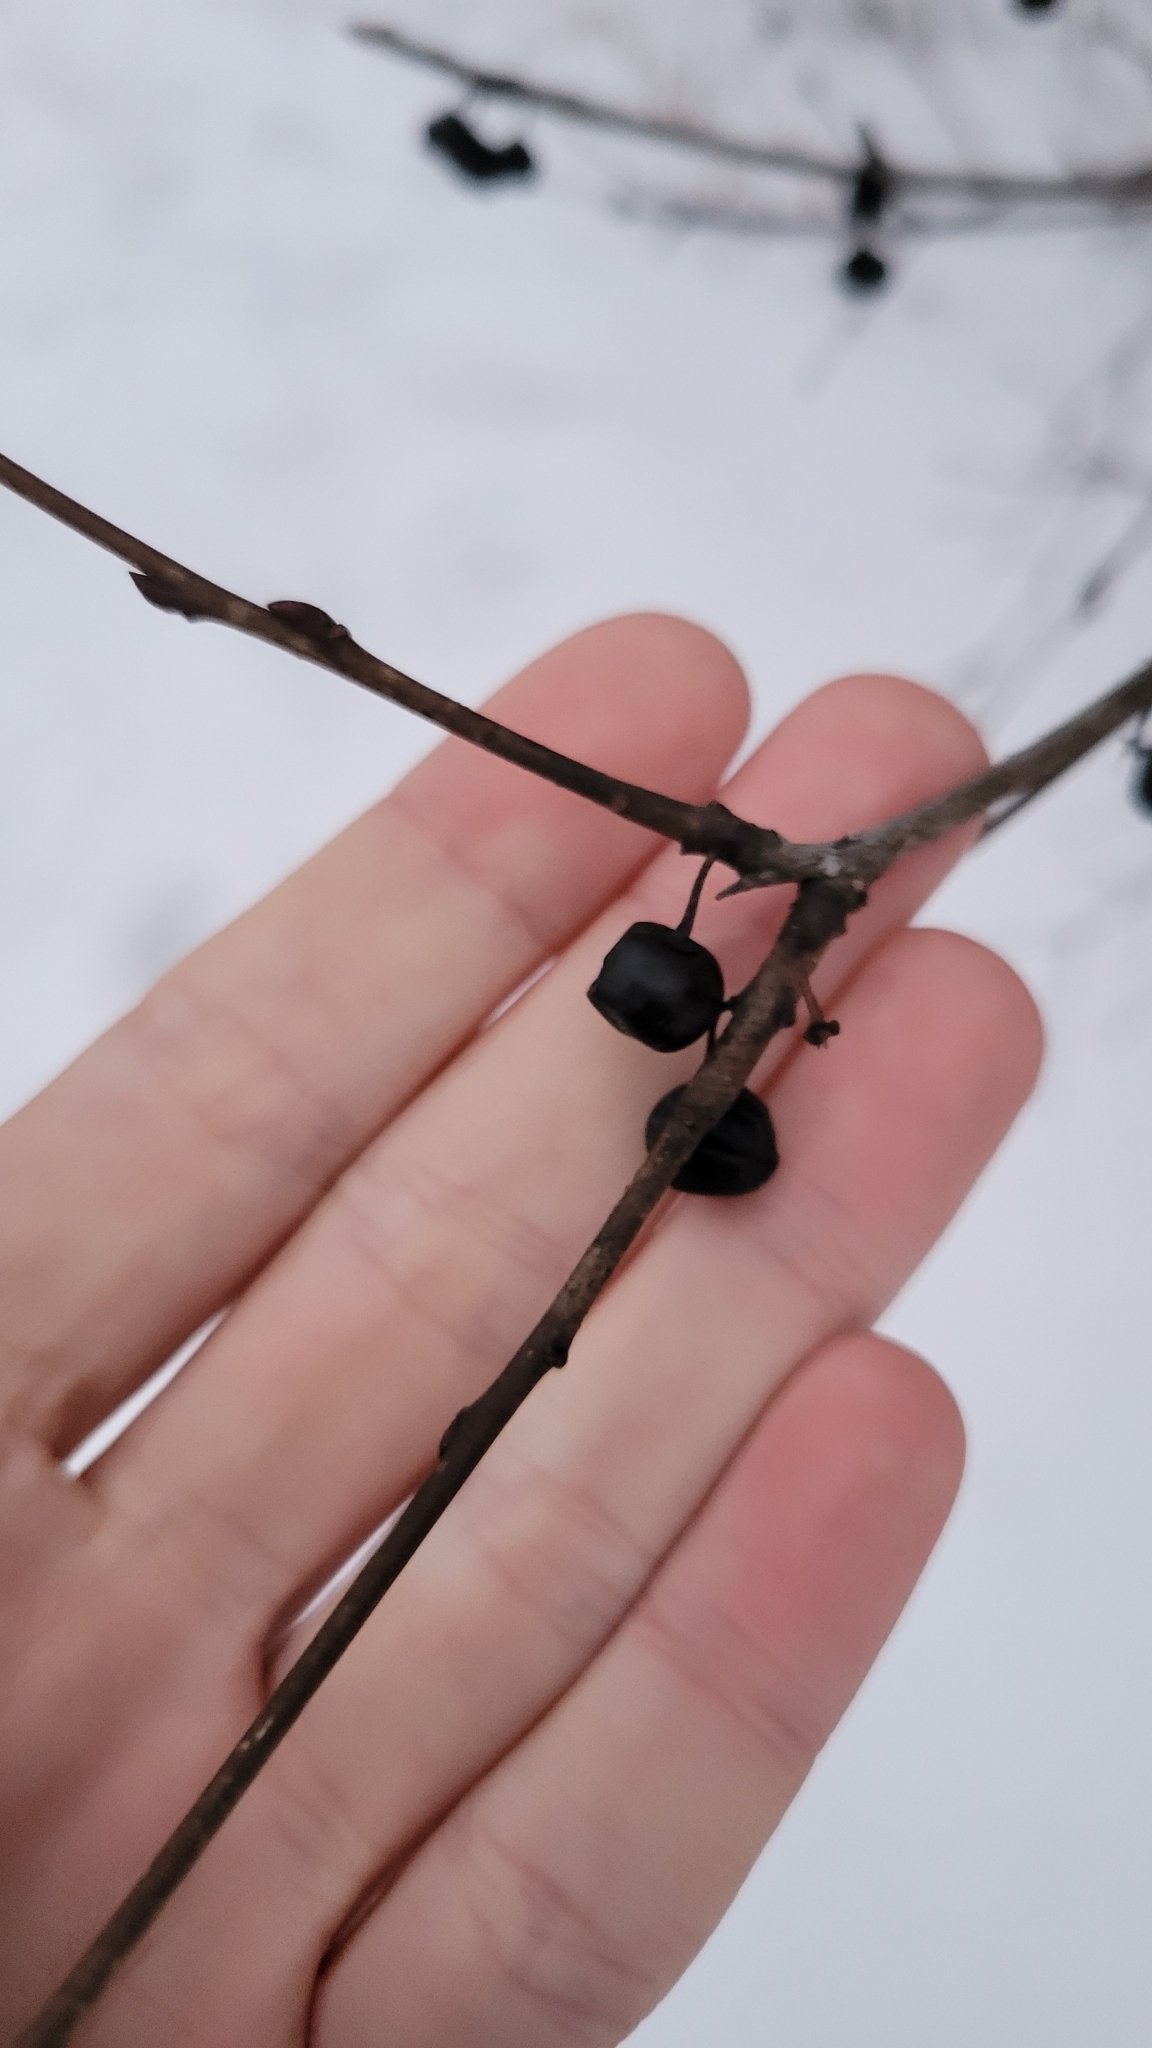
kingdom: Plantae
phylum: Tracheophyta
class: Magnoliopsida
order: Rosales
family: Rhamnaceae
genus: Rhamnus
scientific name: Rhamnus cathartica
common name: Common buckthorn
